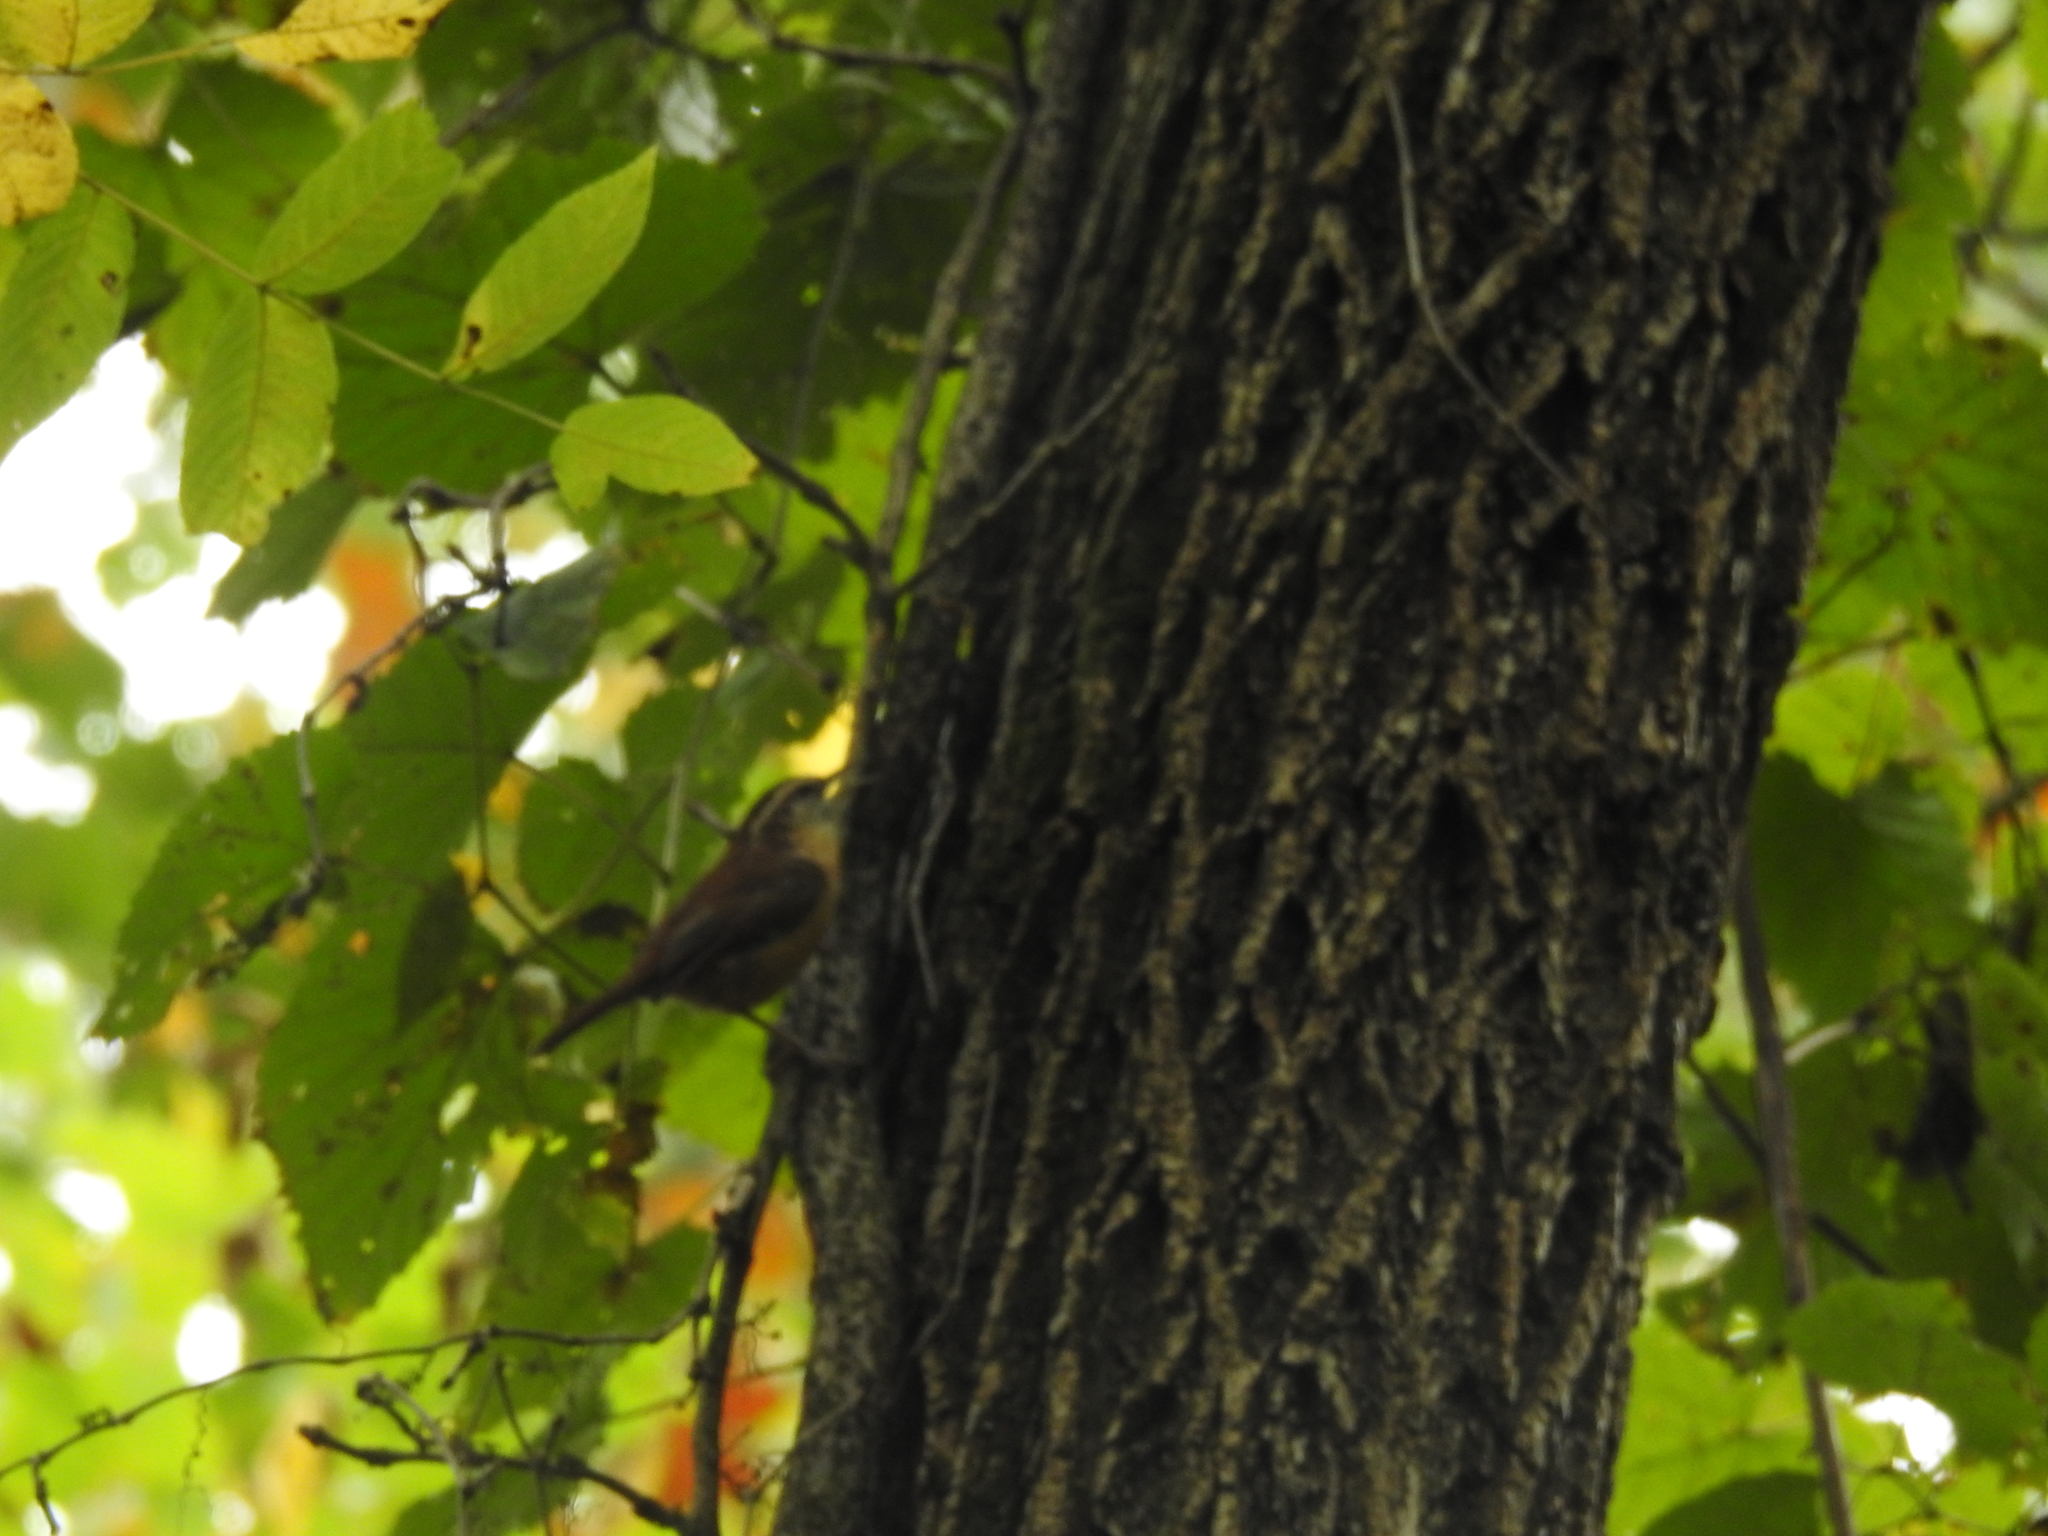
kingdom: Animalia
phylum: Chordata
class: Aves
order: Passeriformes
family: Troglodytidae
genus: Thryothorus
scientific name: Thryothorus ludovicianus
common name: Carolina wren
